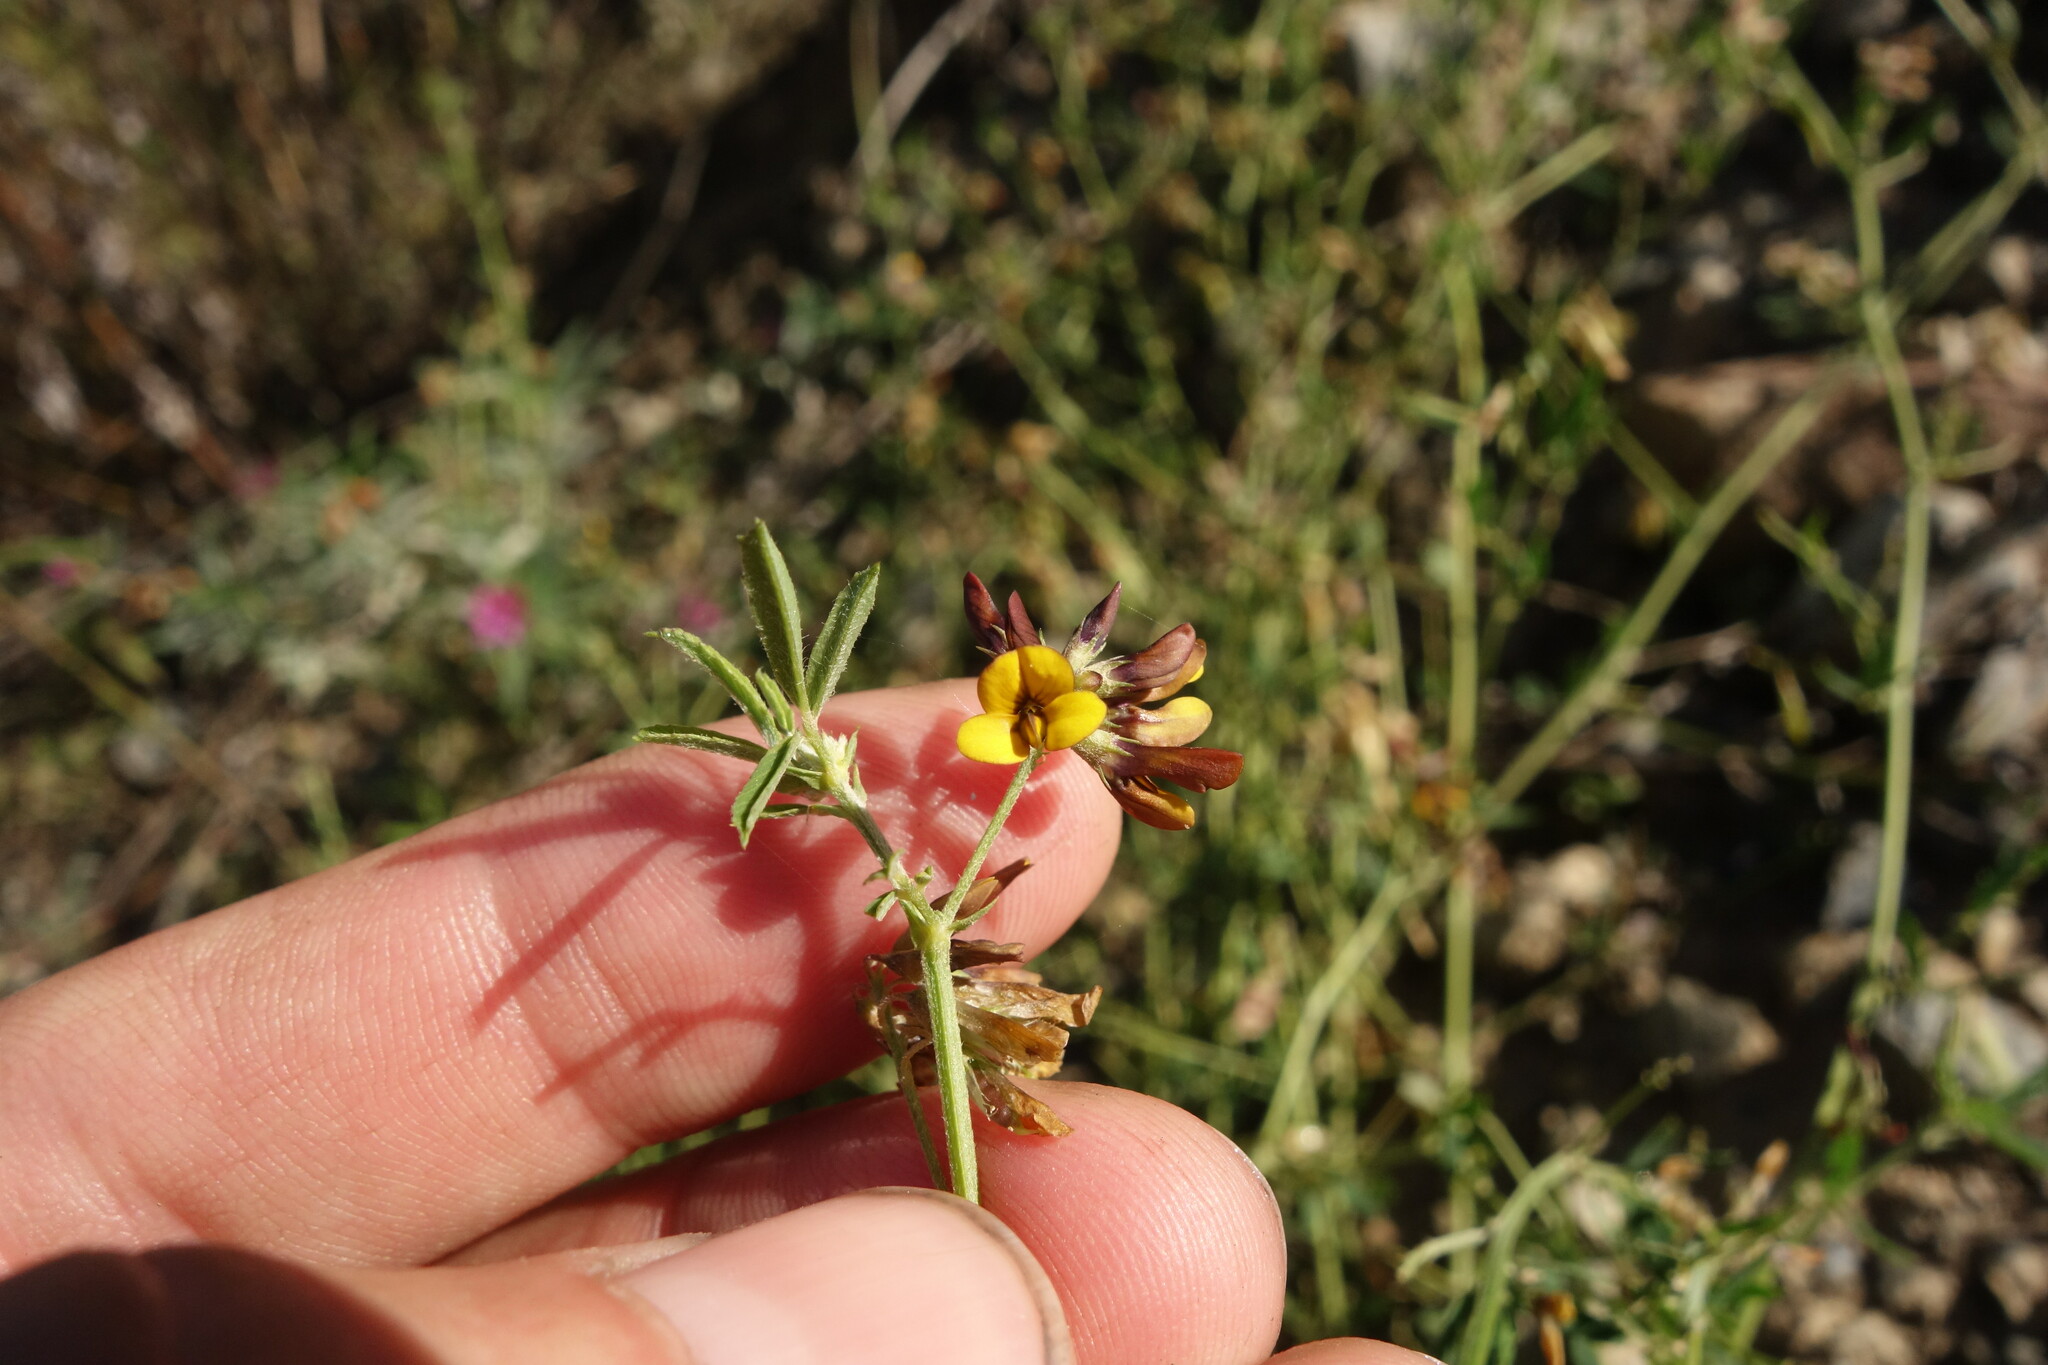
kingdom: Plantae
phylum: Tracheophyta
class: Magnoliopsida
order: Fabales
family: Fabaceae
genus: Medicago
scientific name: Medicago ruthenica
